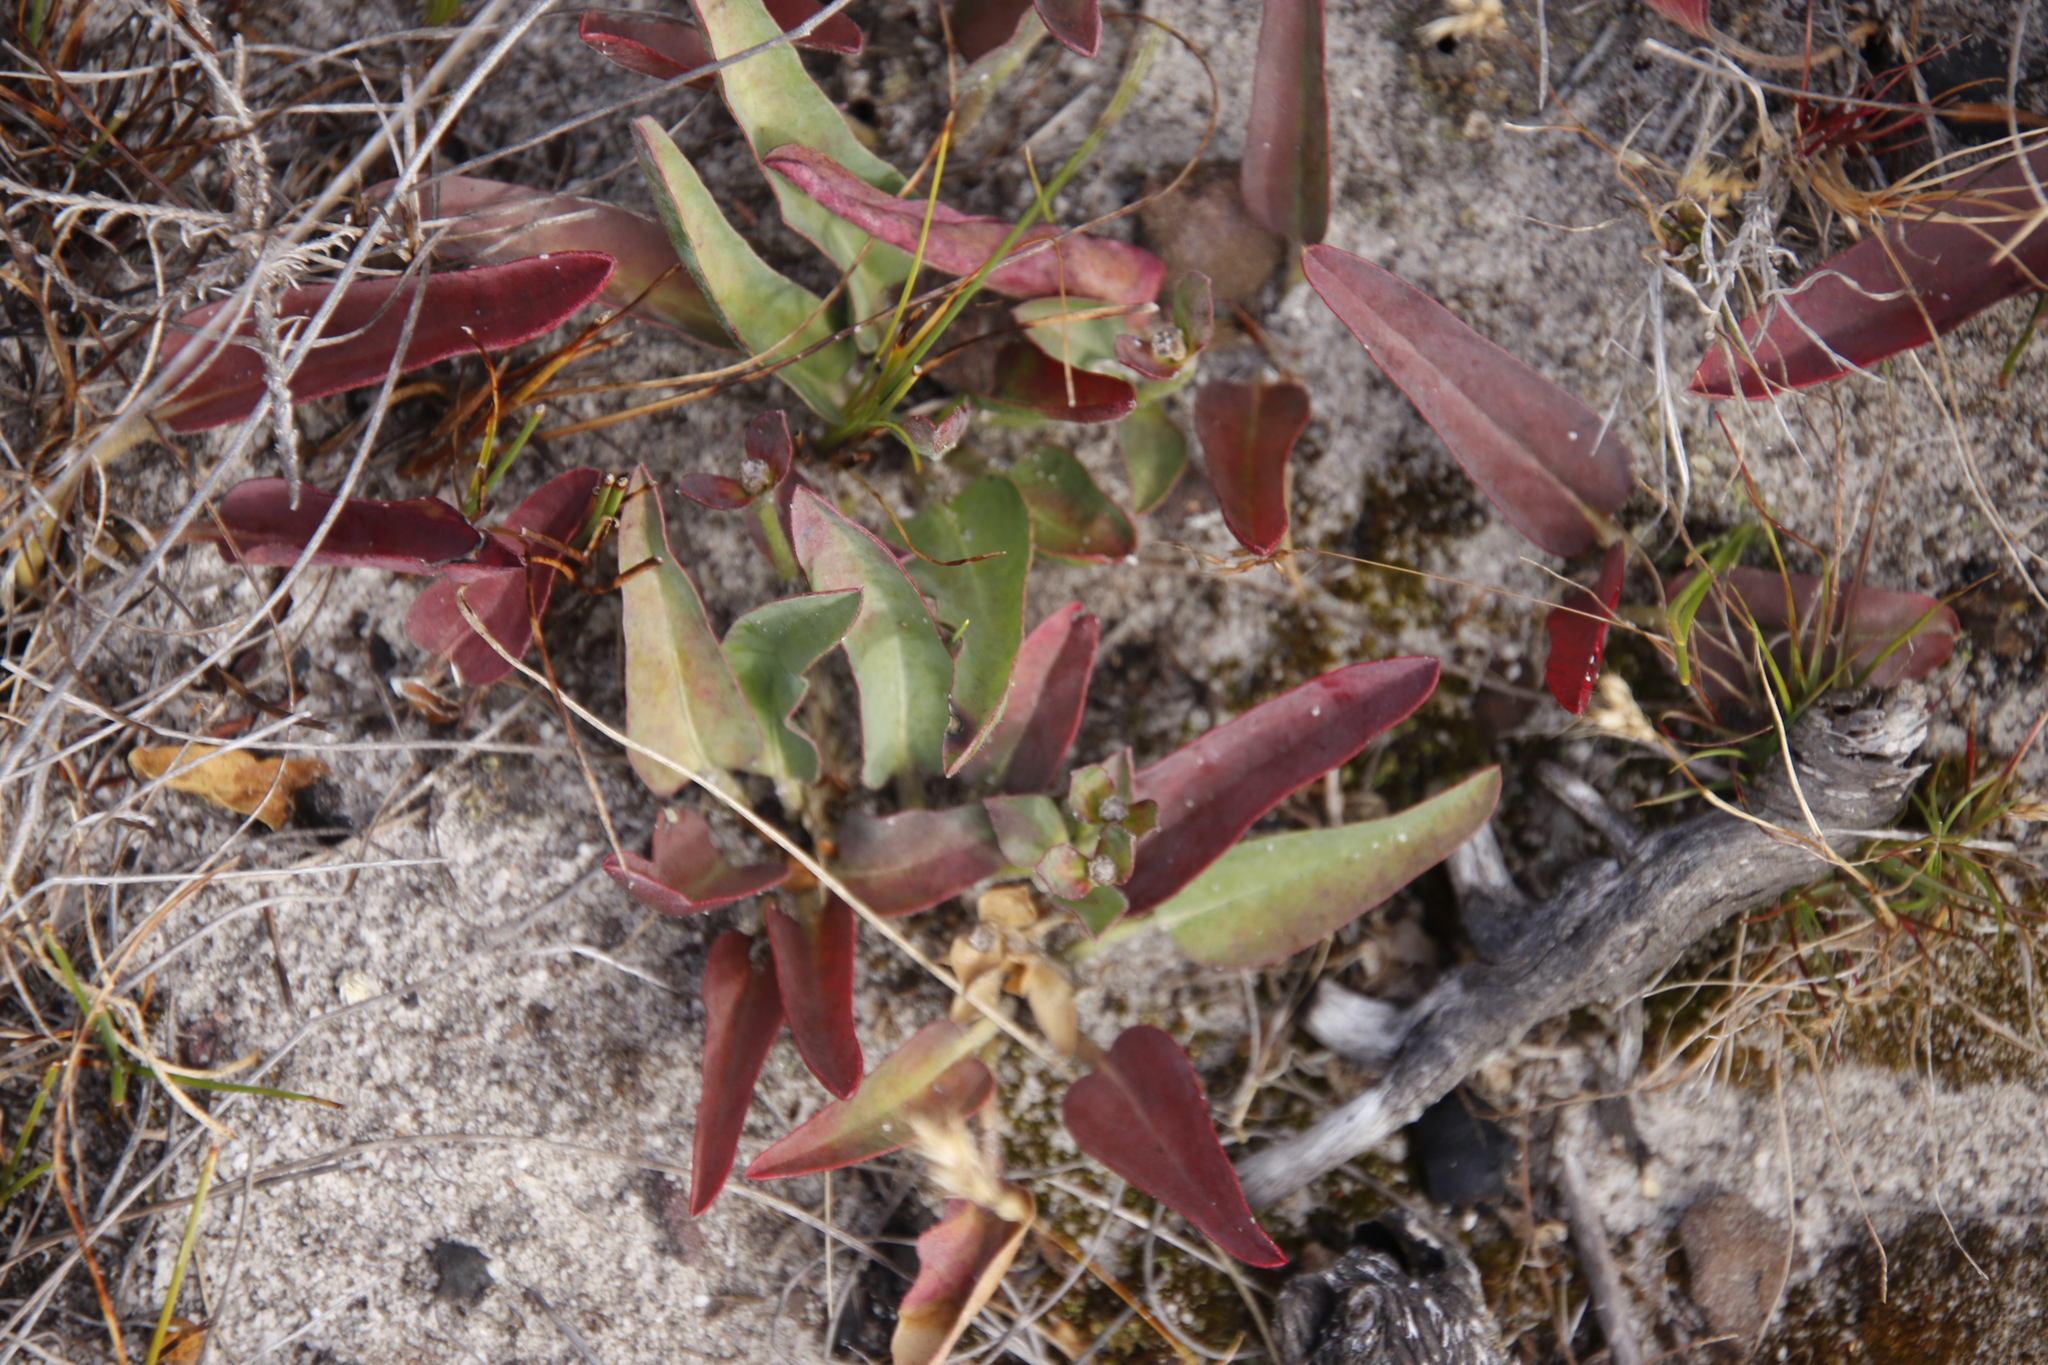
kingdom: Plantae
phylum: Tracheophyta
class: Magnoliopsida
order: Malpighiales
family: Euphorbiaceae
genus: Euphorbia
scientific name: Euphorbia tuberosa
